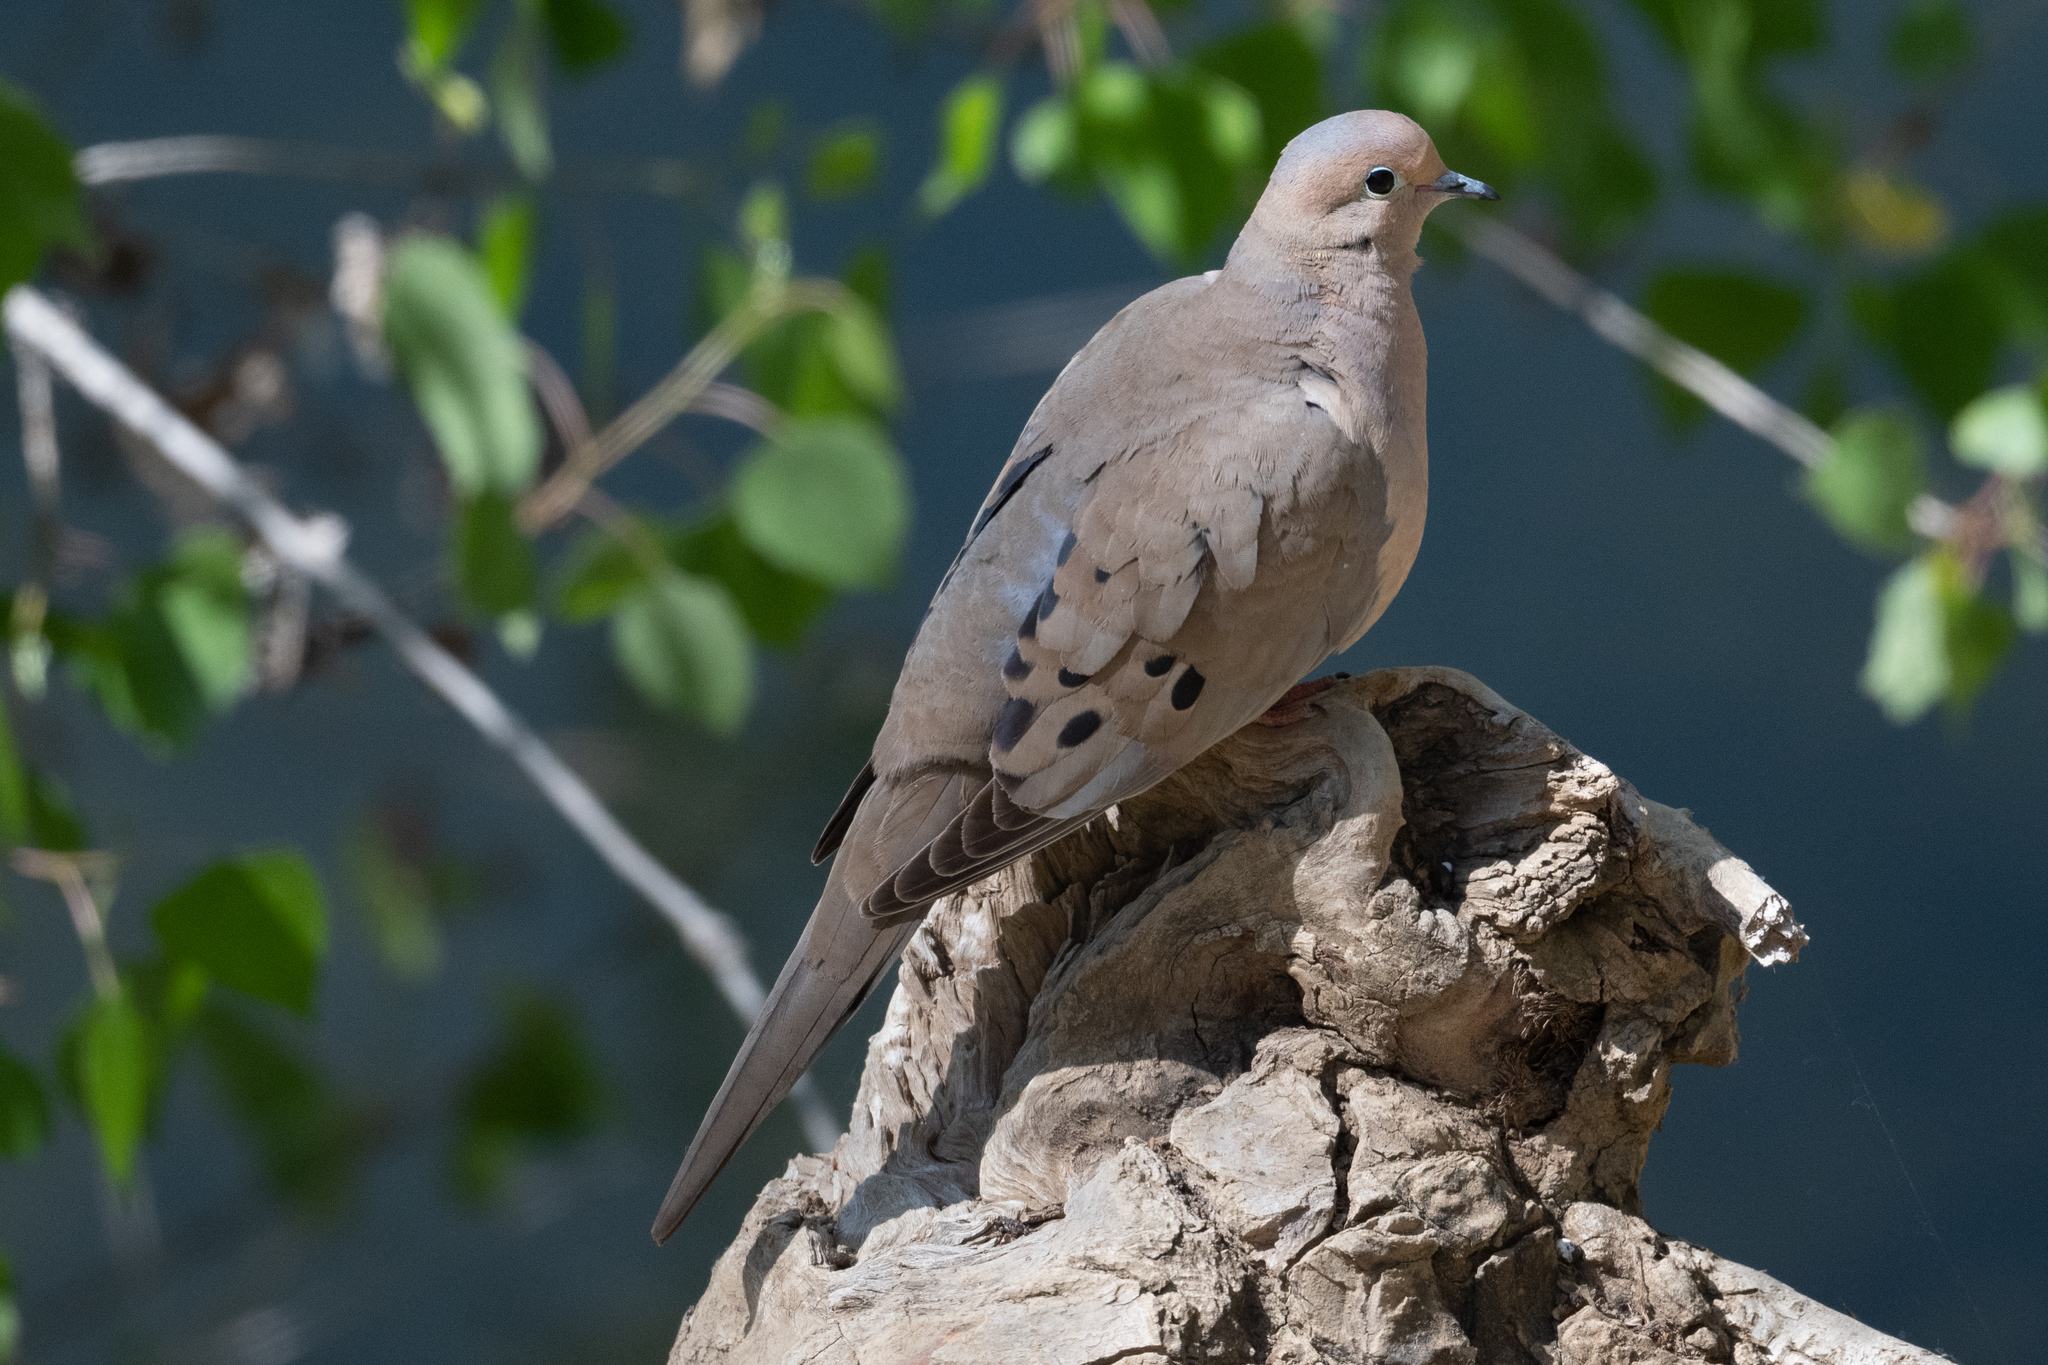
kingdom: Animalia
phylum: Chordata
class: Aves
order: Columbiformes
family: Columbidae
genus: Zenaida
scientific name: Zenaida macroura
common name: Mourning dove
